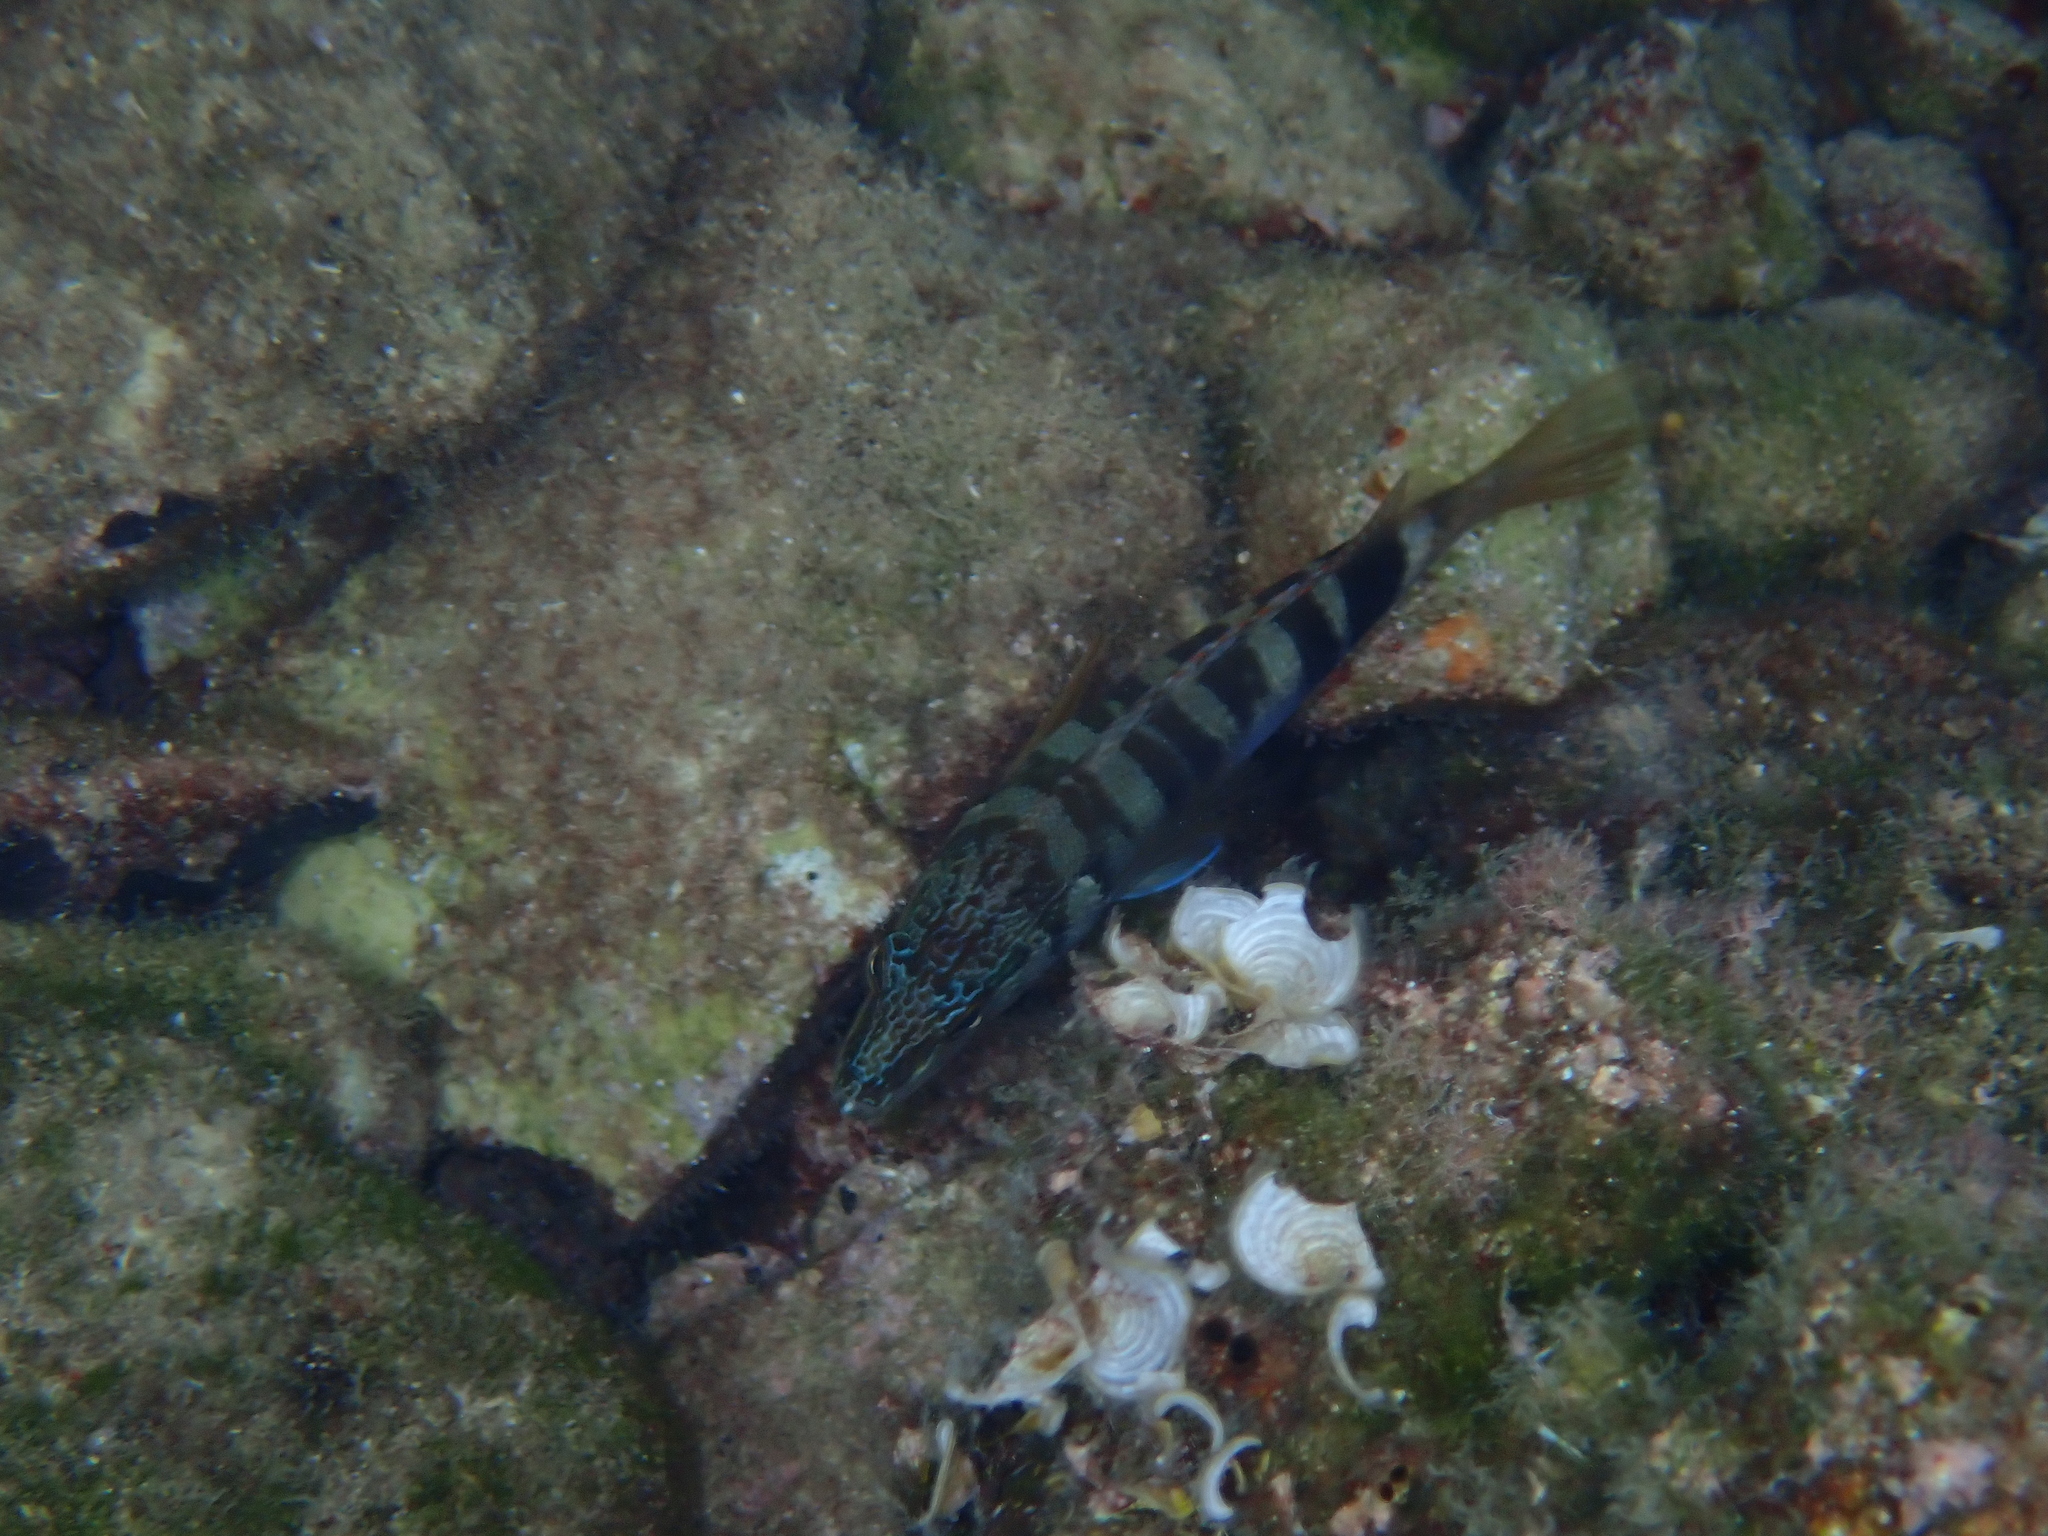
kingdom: Animalia
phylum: Chordata
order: Perciformes
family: Serranidae
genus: Serranus
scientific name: Serranus scriba
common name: Painted comber
